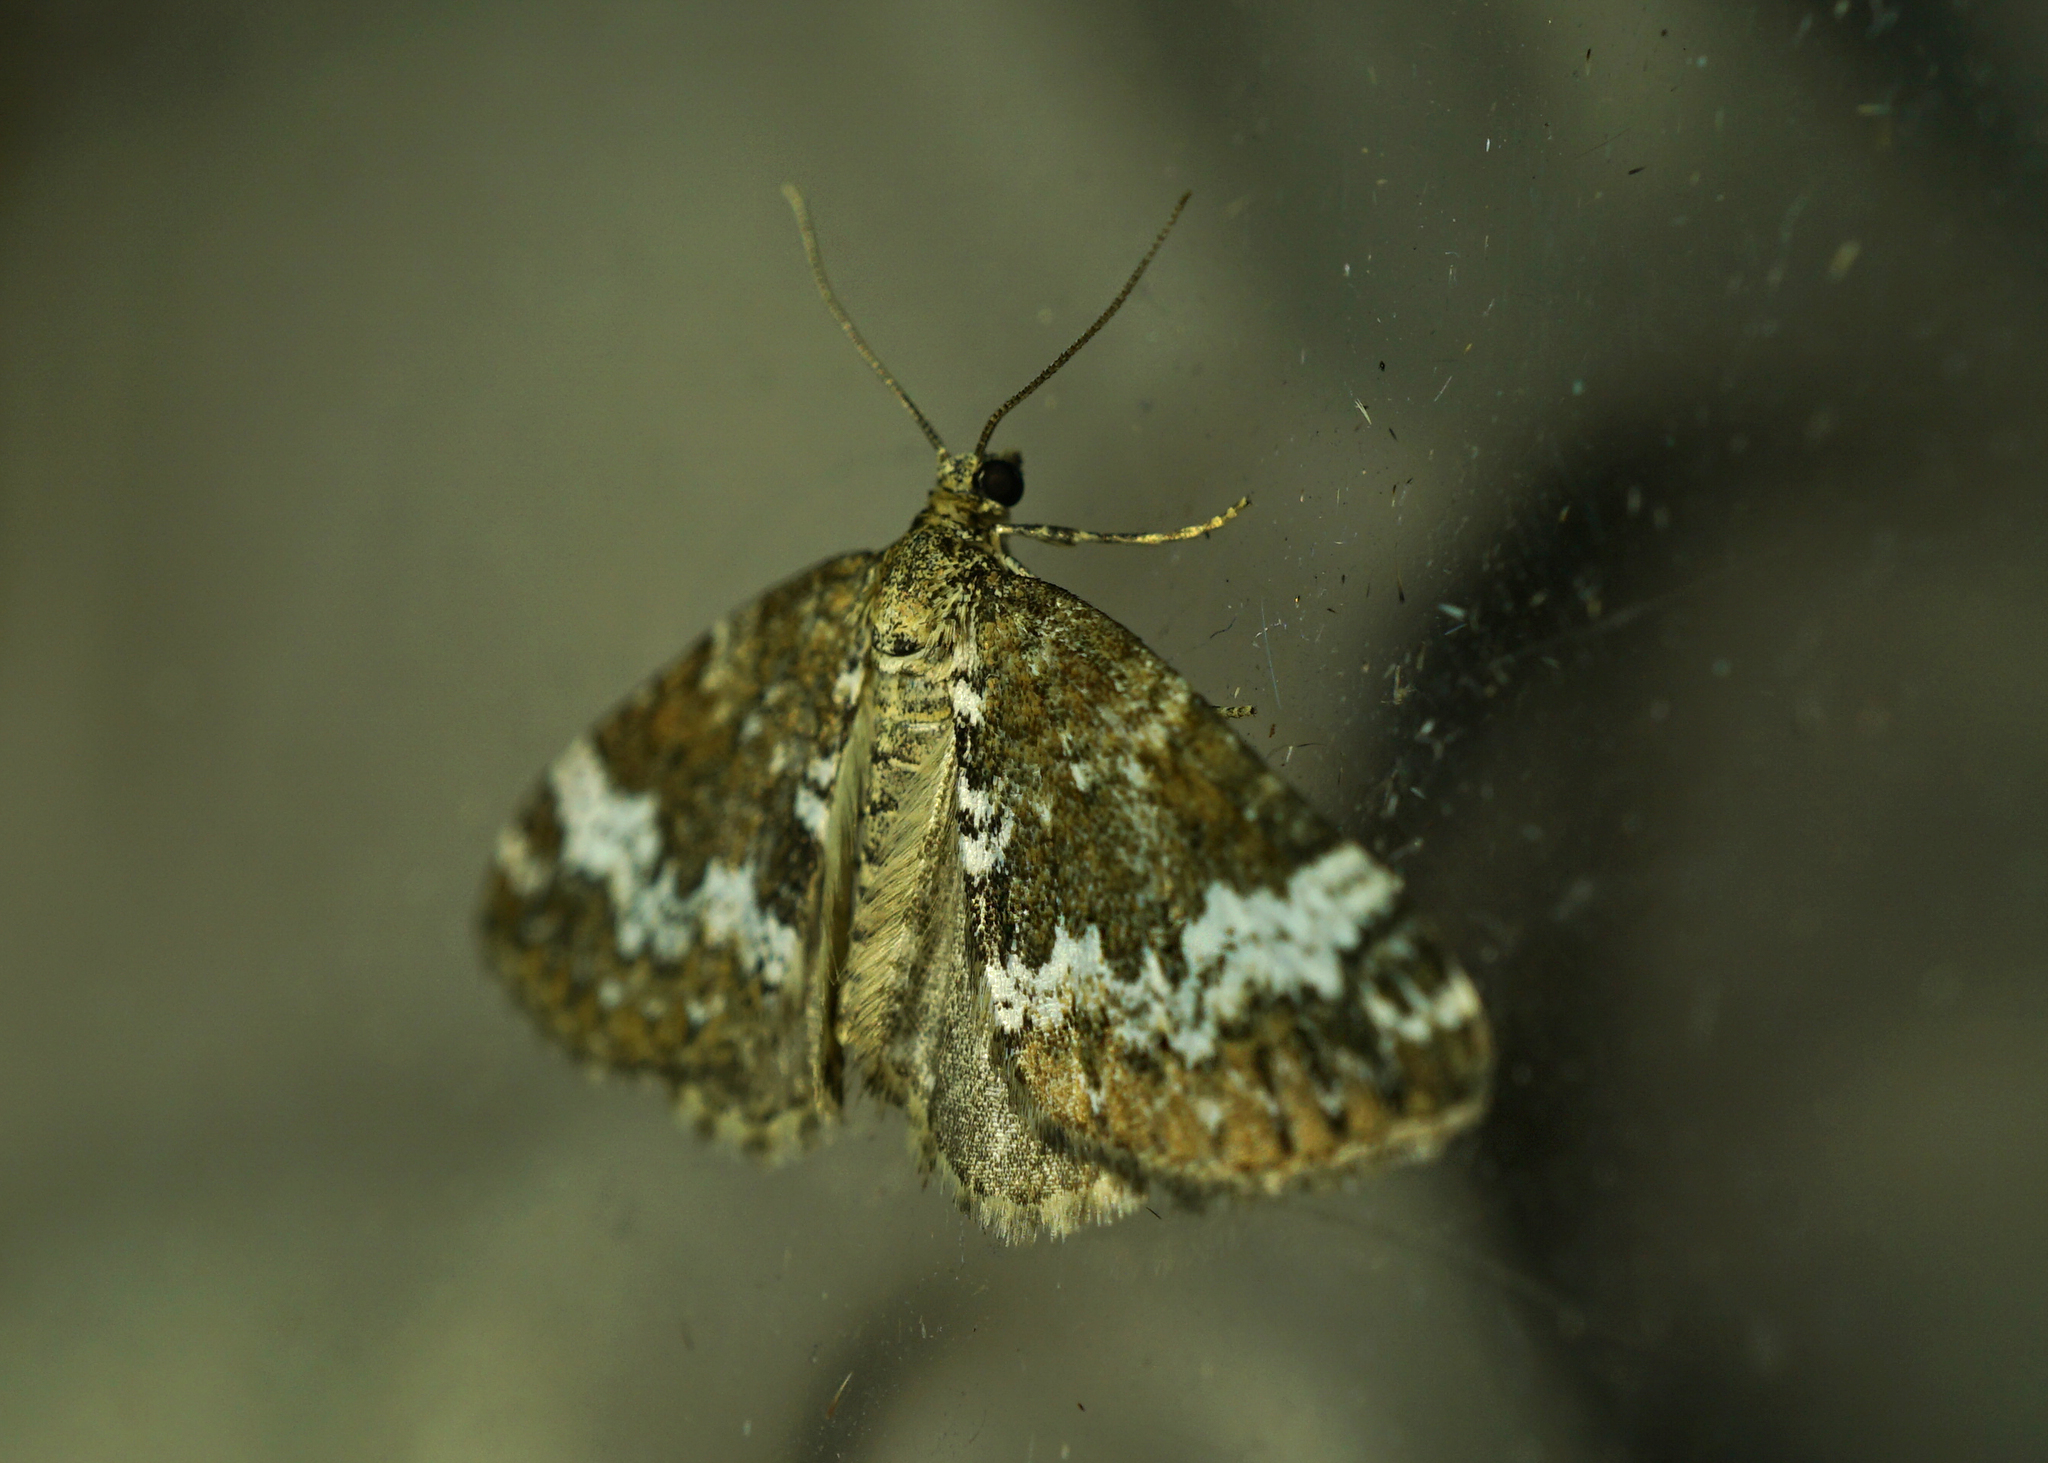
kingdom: Animalia
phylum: Arthropoda
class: Insecta
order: Lepidoptera
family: Geometridae
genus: Perizoma
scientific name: Perizoma alchemillata
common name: Small rivulet
